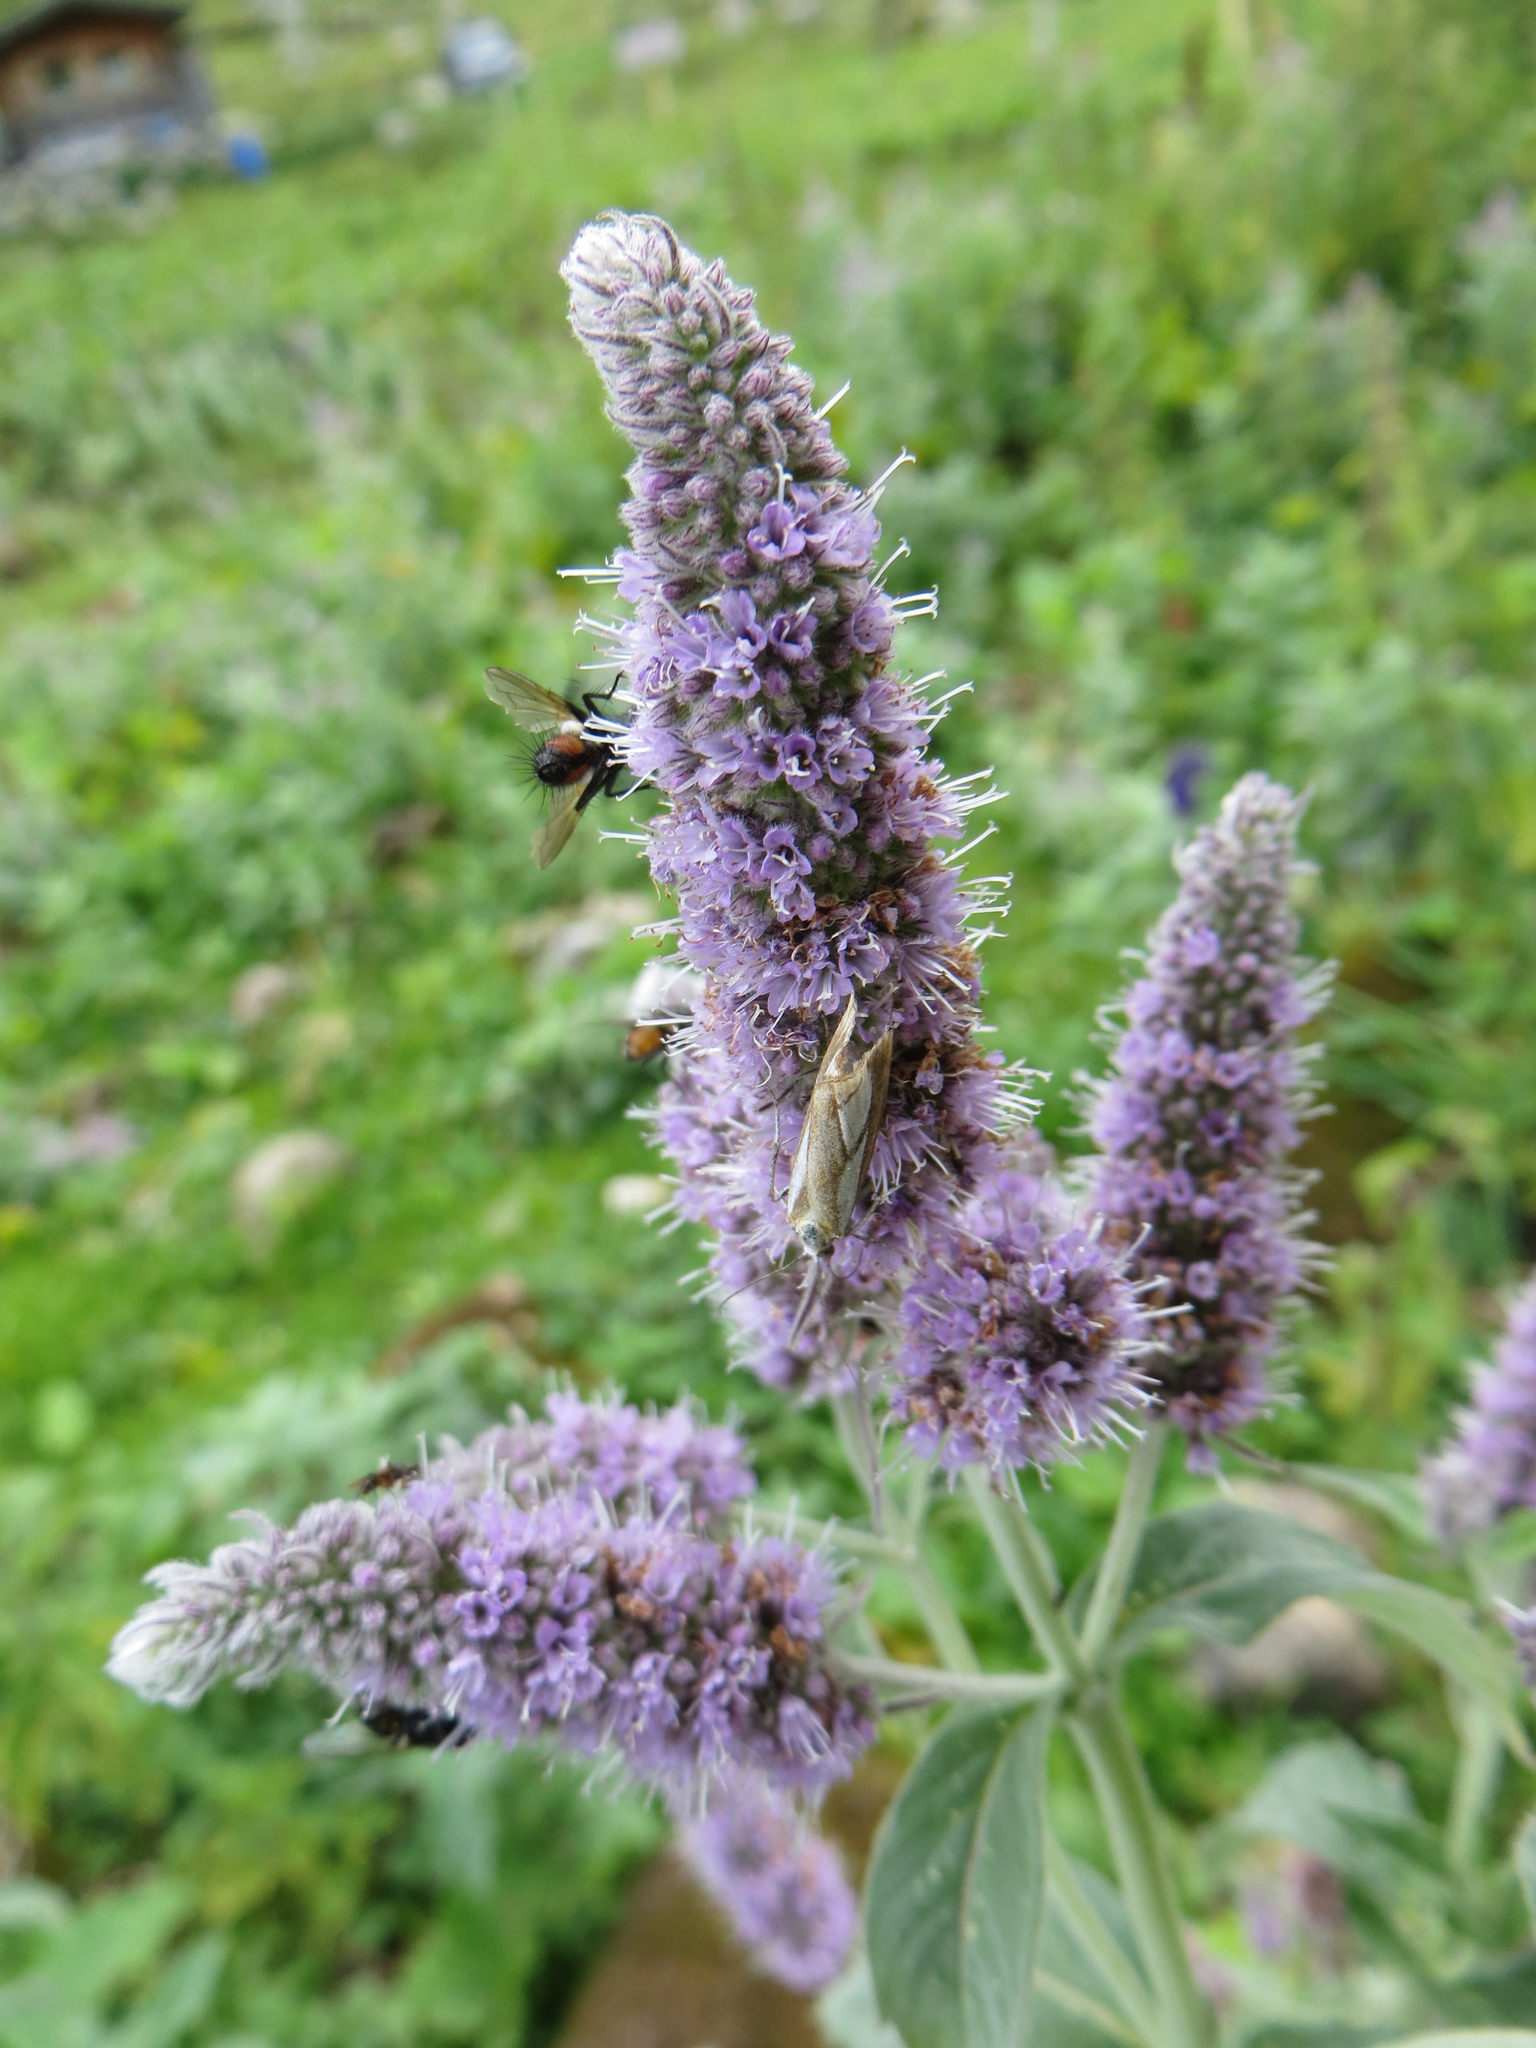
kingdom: Animalia
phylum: Arthropoda
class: Insecta
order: Diptera
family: Tachinidae
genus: Eriothrix
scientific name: Eriothrix rufomaculatus
